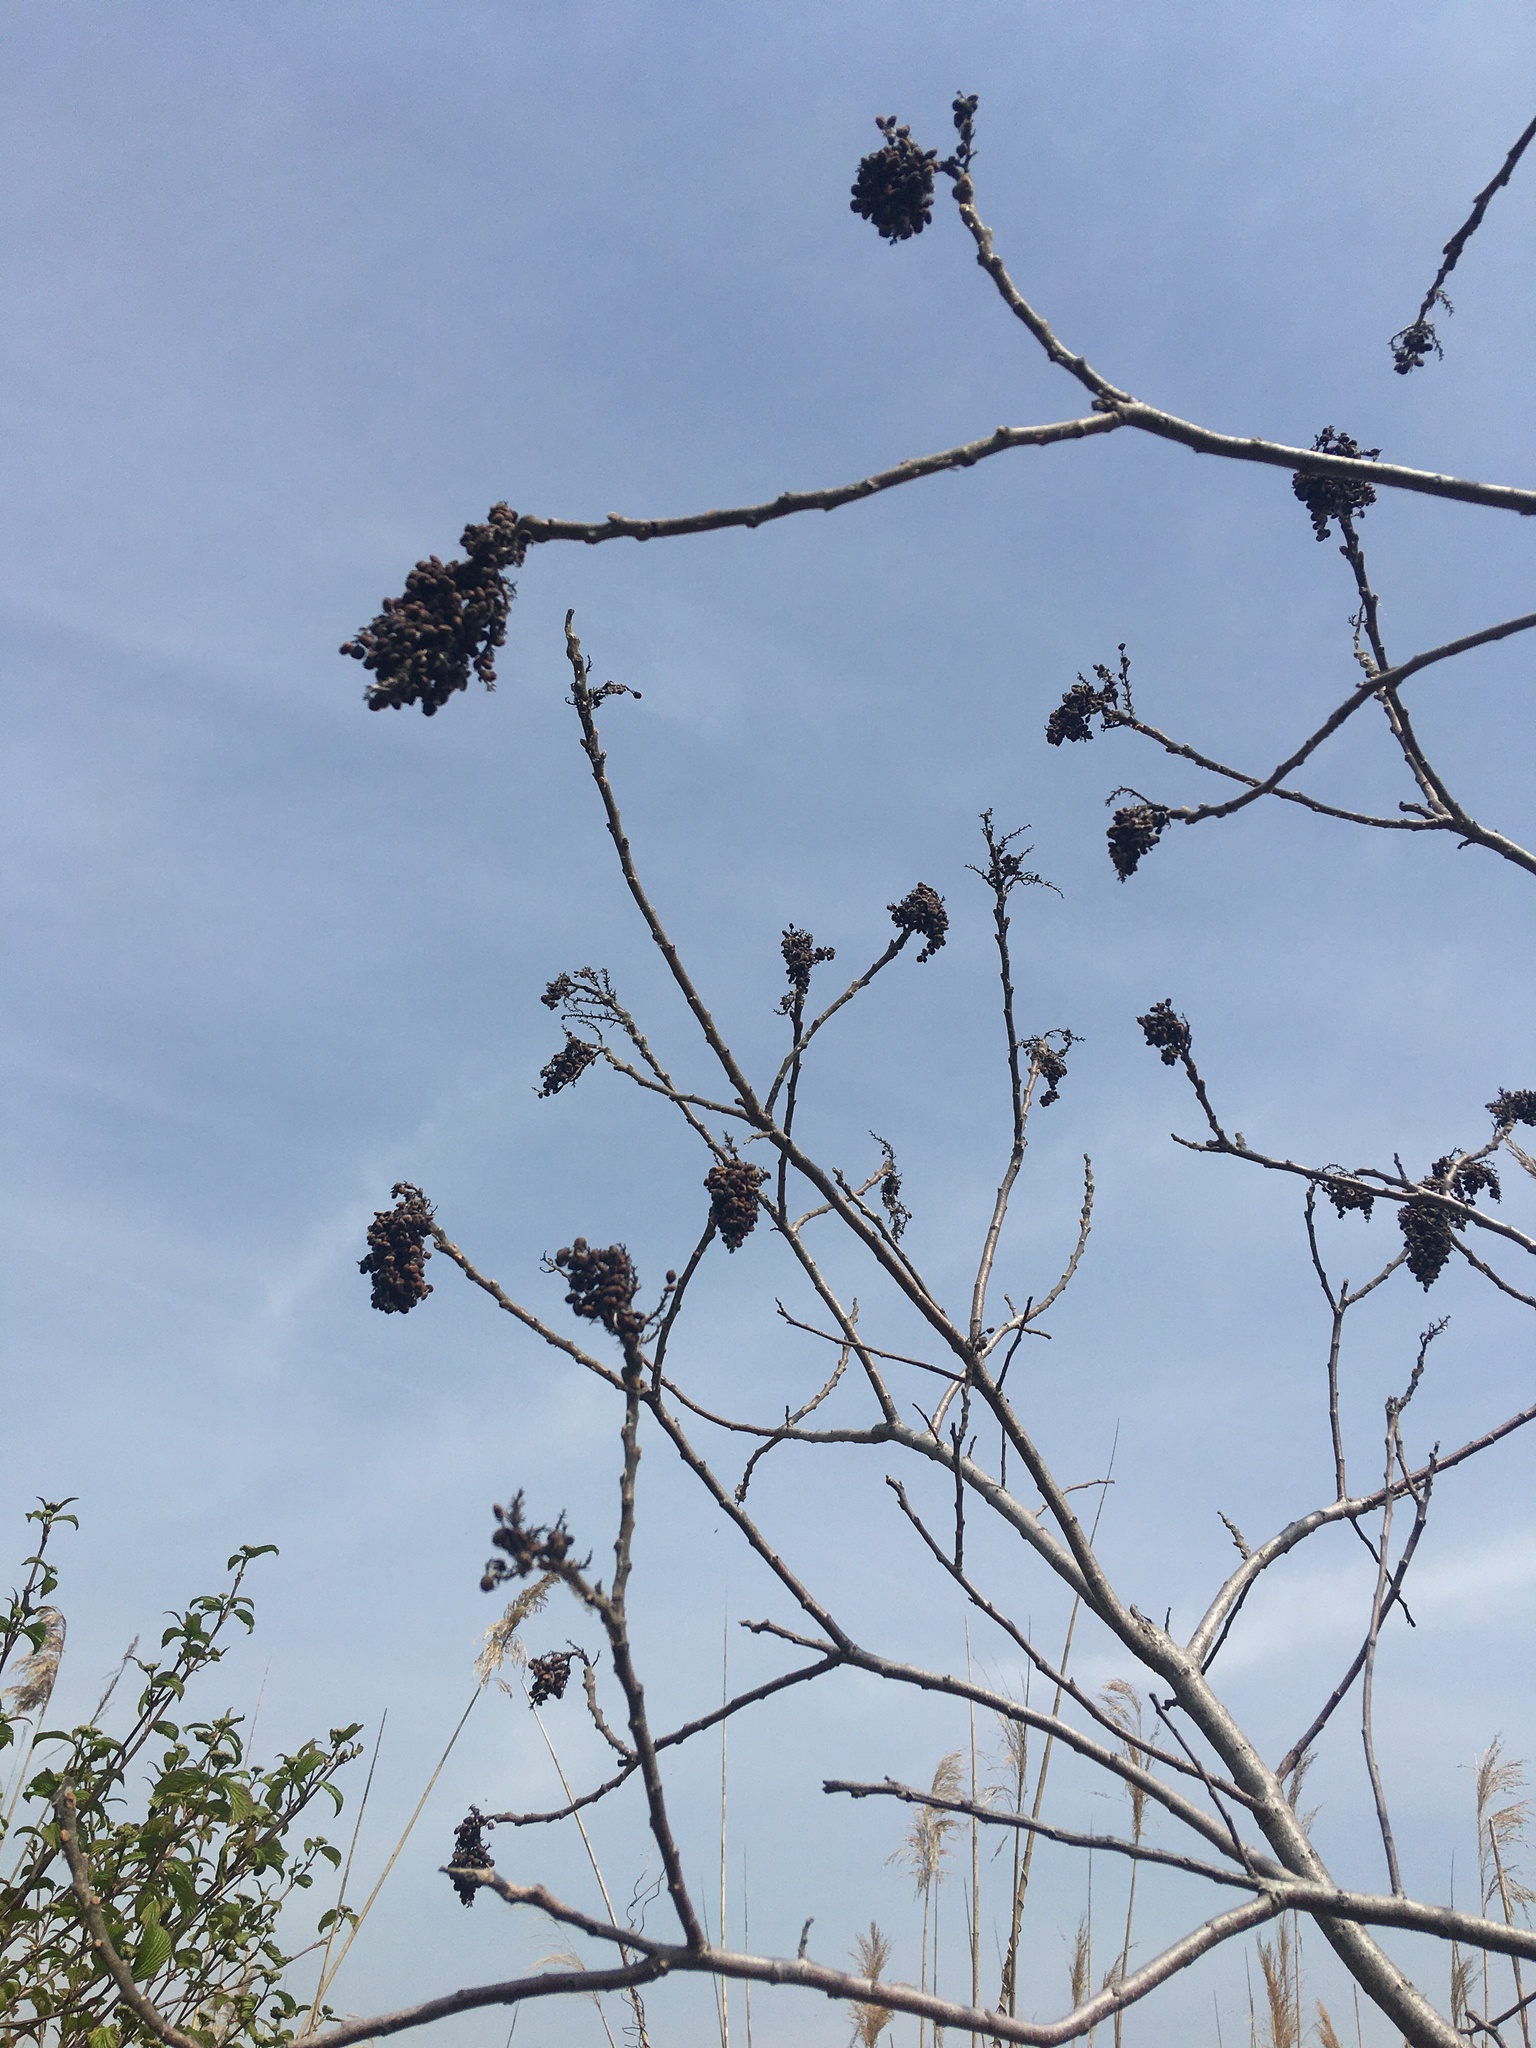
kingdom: Plantae
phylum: Tracheophyta
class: Magnoliopsida
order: Sapindales
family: Anacardiaceae
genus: Rhus
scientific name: Rhus copallina
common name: Shining sumac
